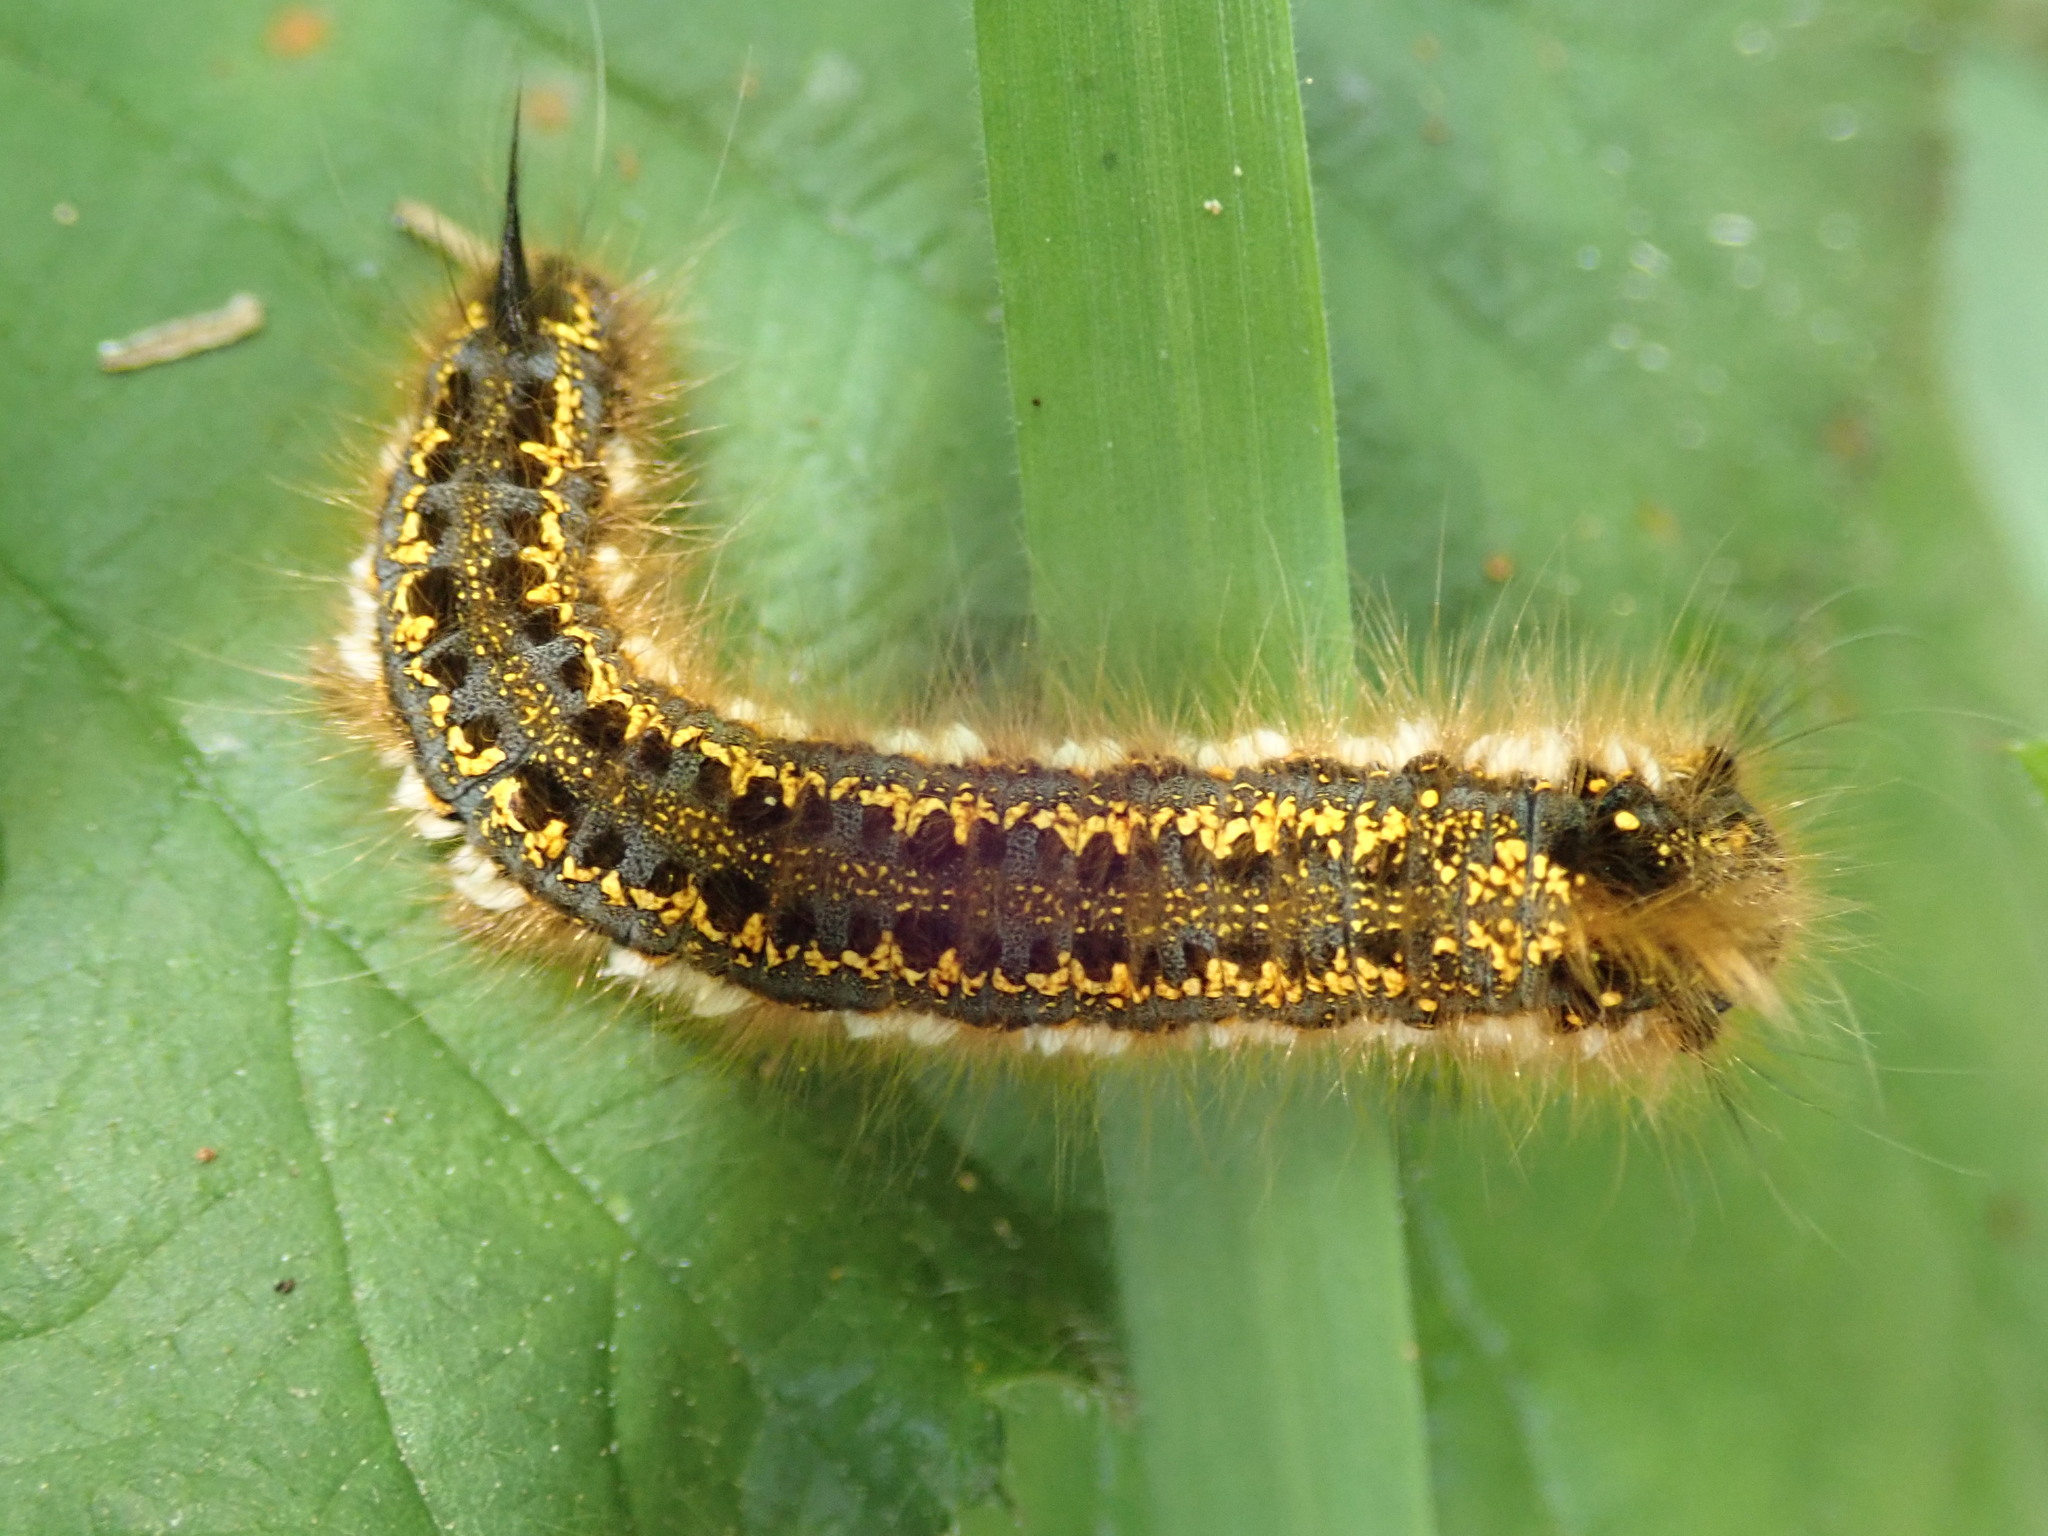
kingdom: Animalia
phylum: Arthropoda
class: Insecta
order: Lepidoptera
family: Lasiocampidae
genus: Euthrix
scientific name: Euthrix potatoria
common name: Drinker
